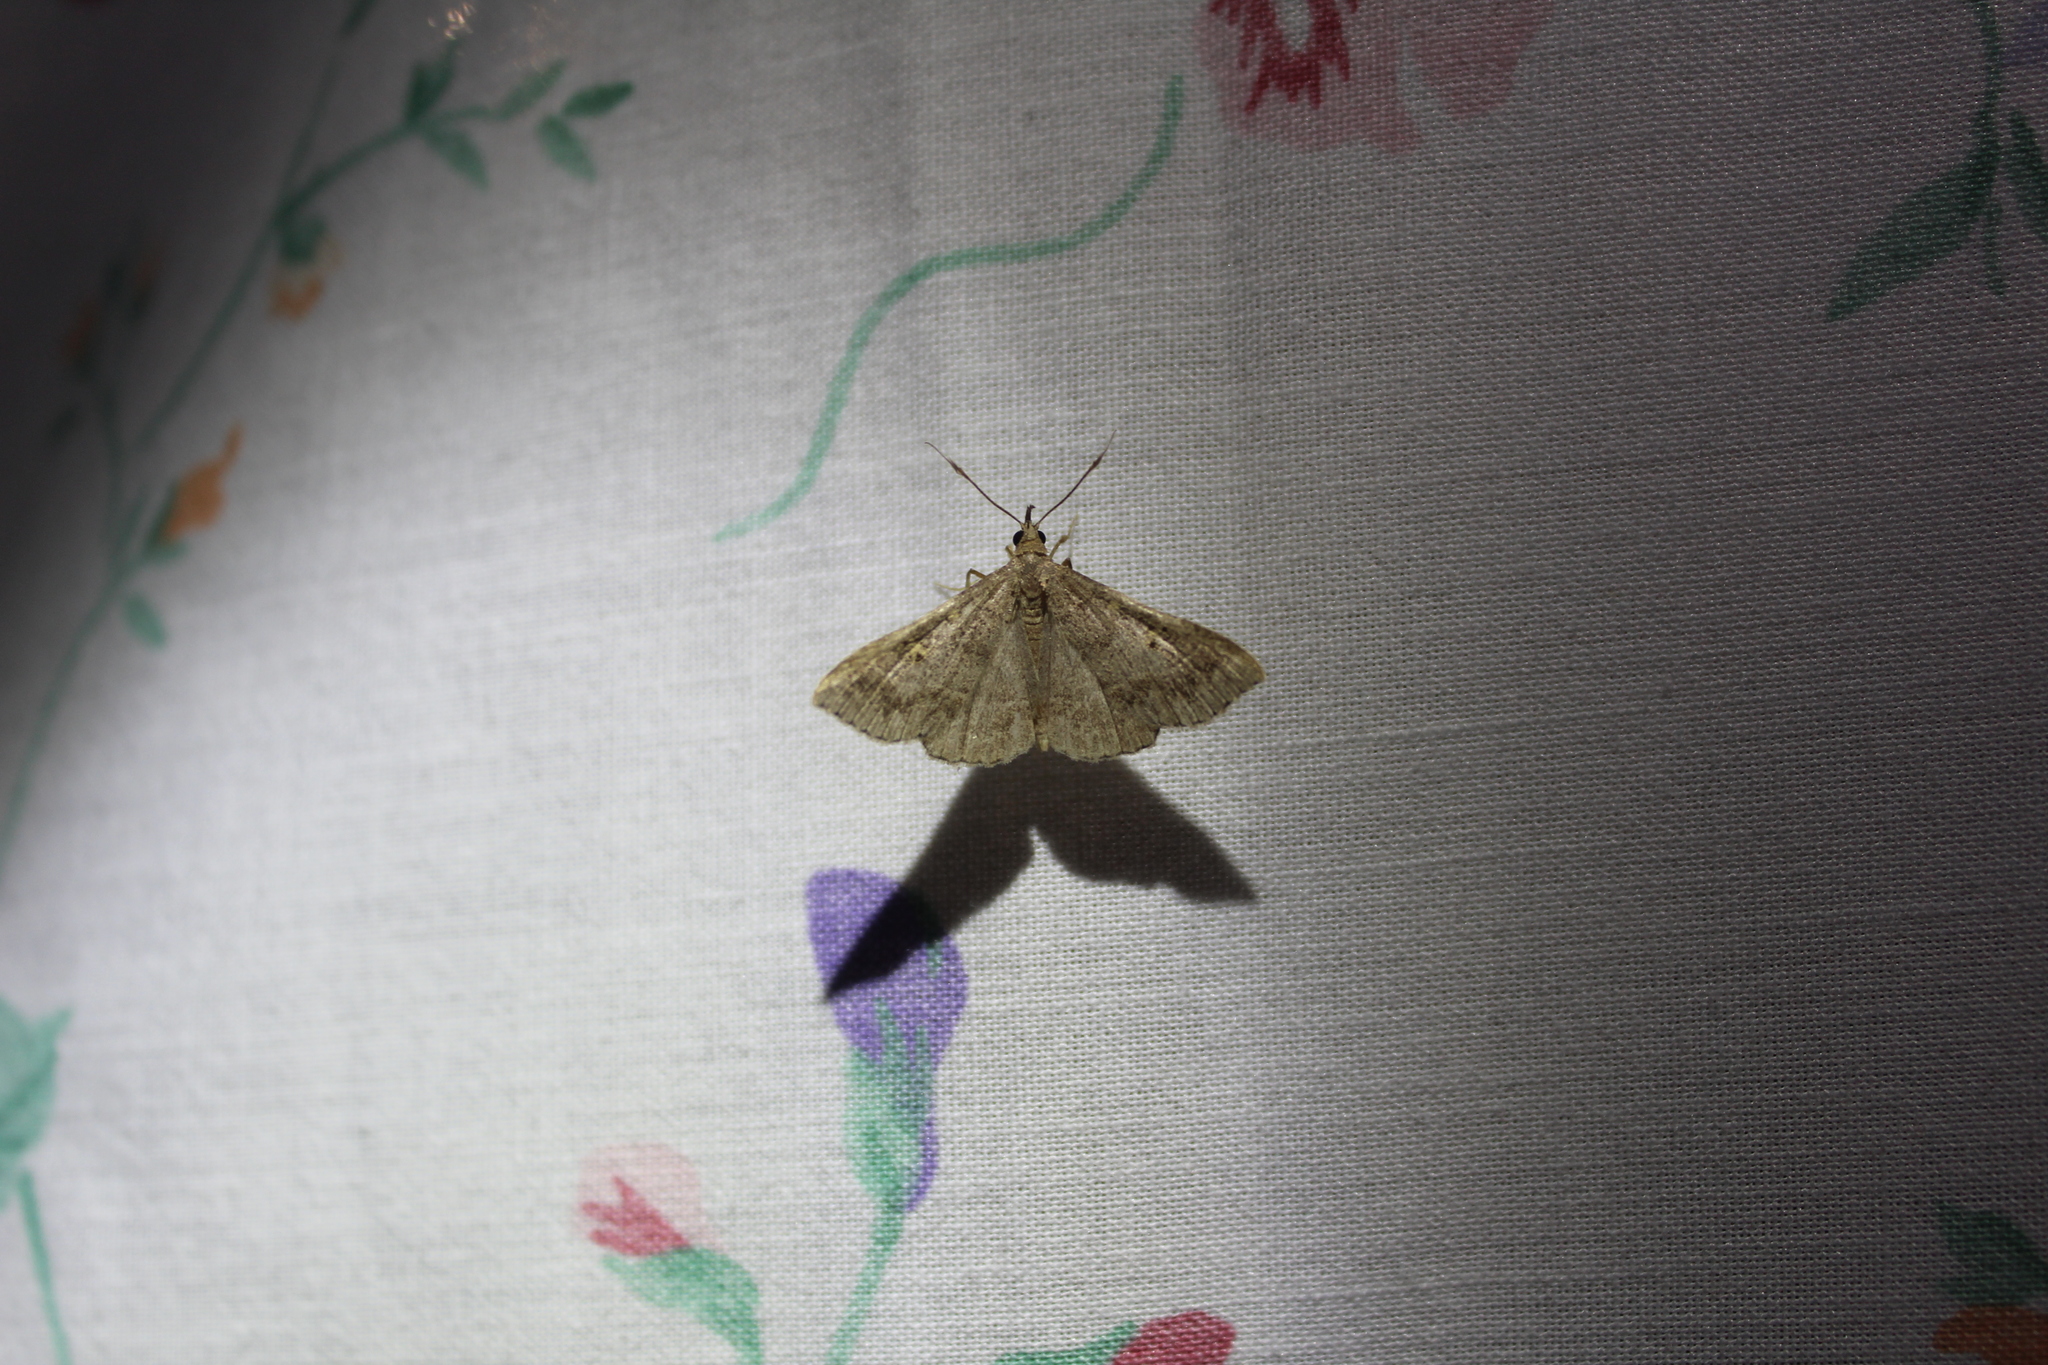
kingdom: Animalia
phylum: Arthropoda
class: Insecta
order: Lepidoptera
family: Erebidae
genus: Renia
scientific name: Renia flavipunctalis
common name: Yellow-spotted renia moth
